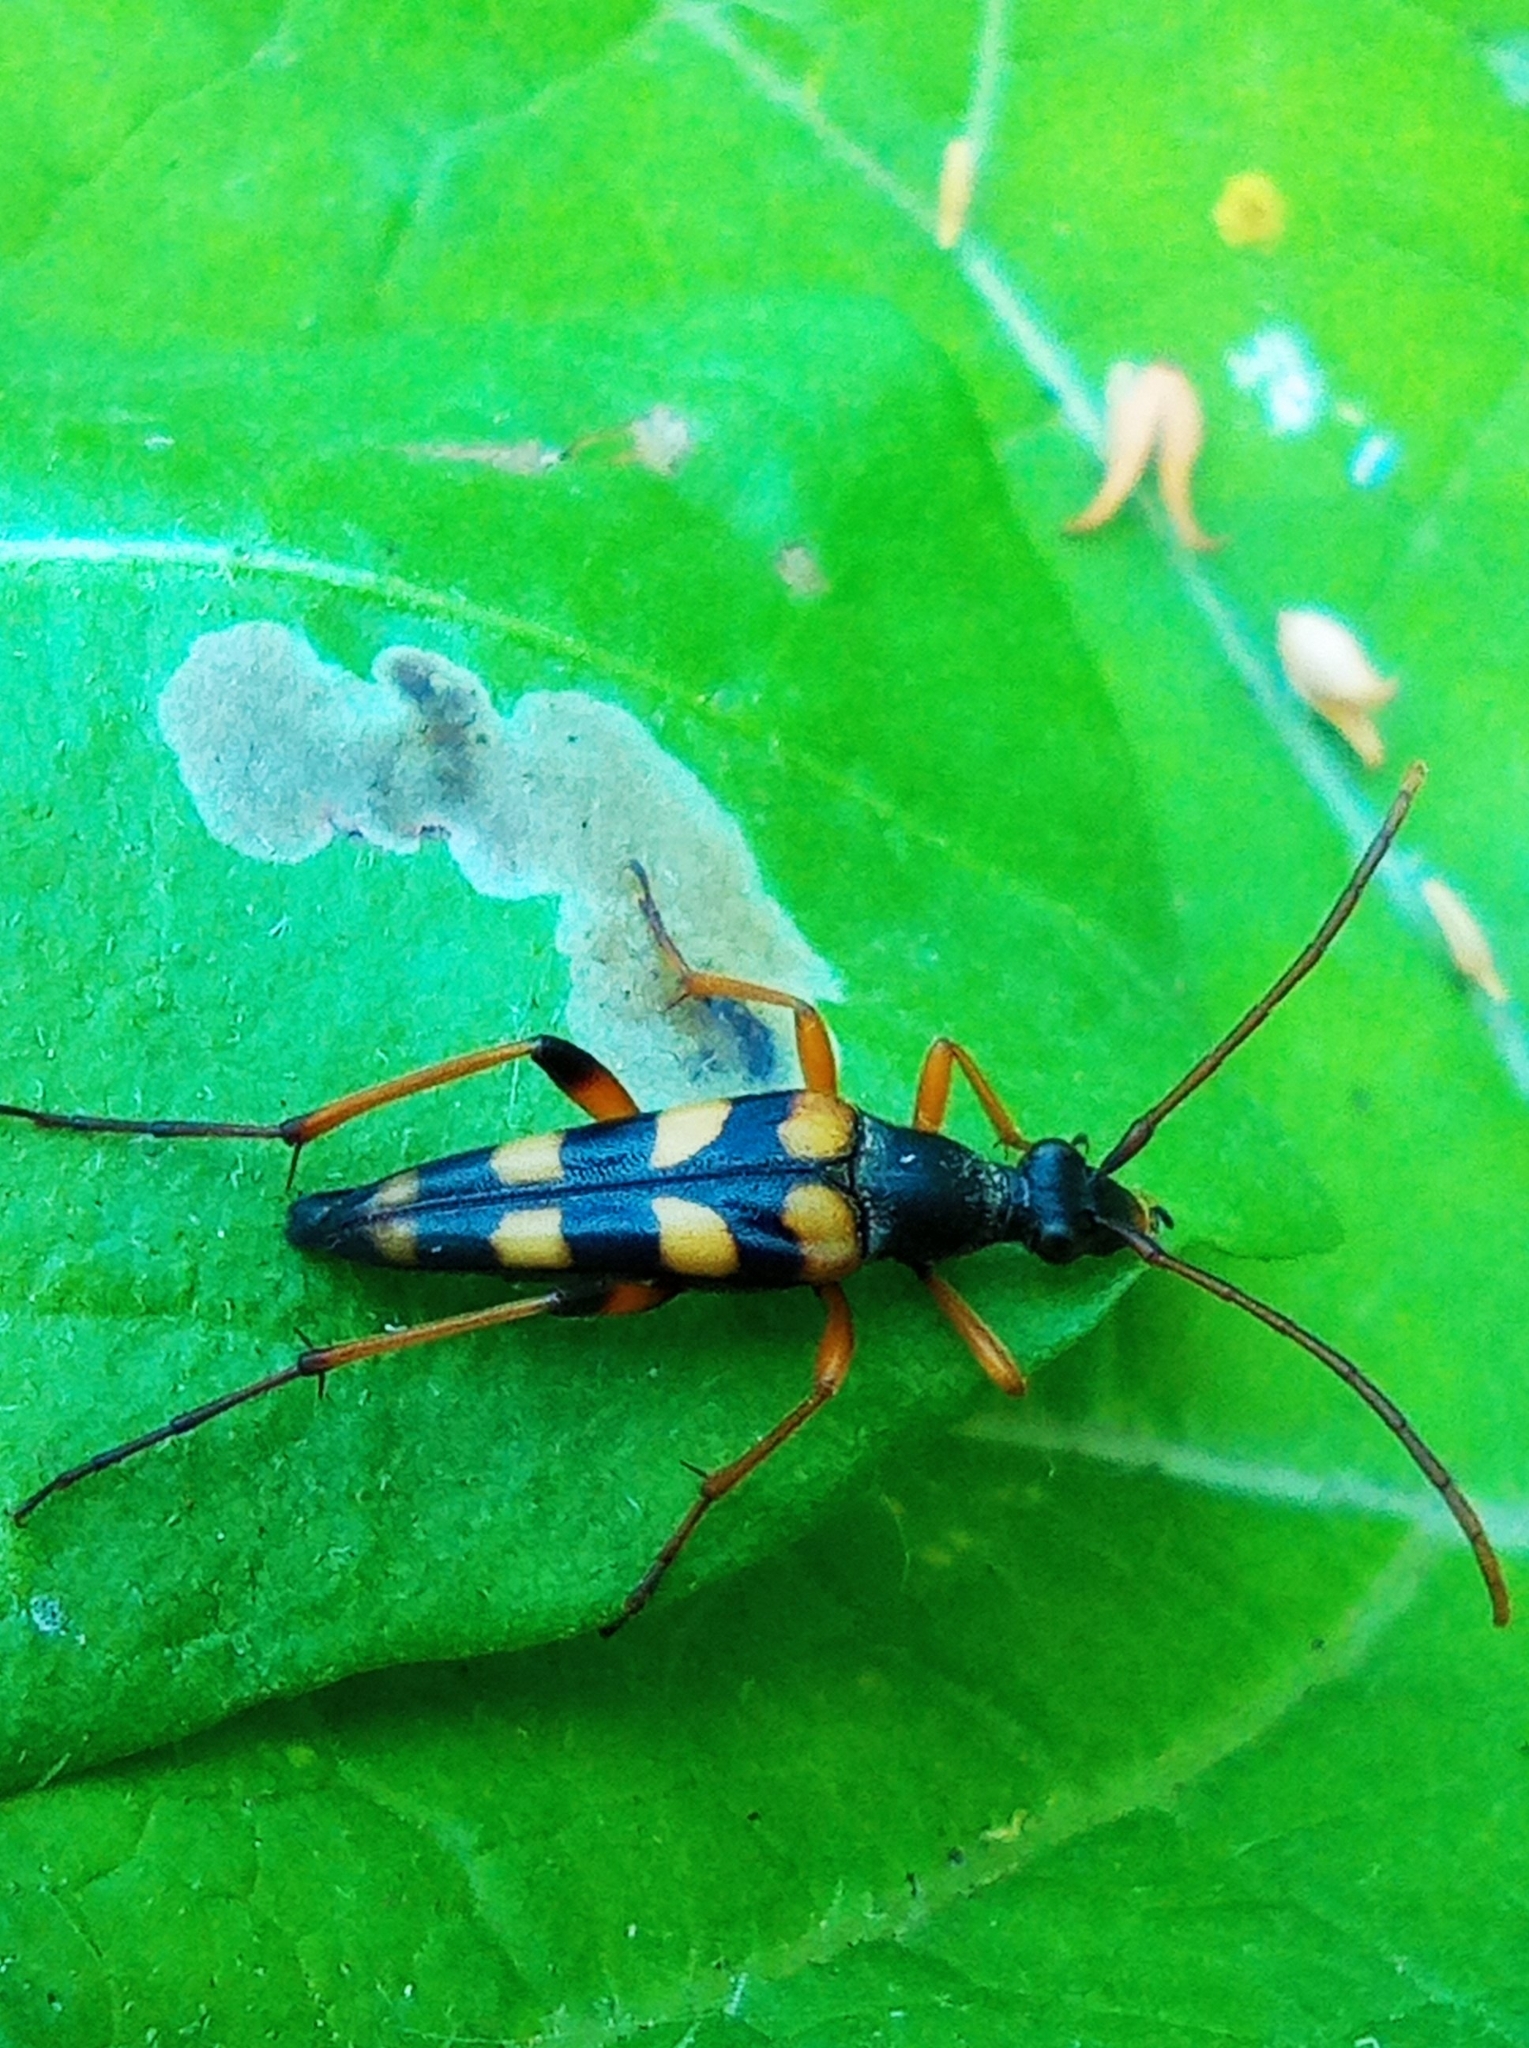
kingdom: Animalia
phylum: Arthropoda
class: Insecta
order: Coleoptera
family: Cerambycidae
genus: Strangalia
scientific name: Strangalia attenuata
